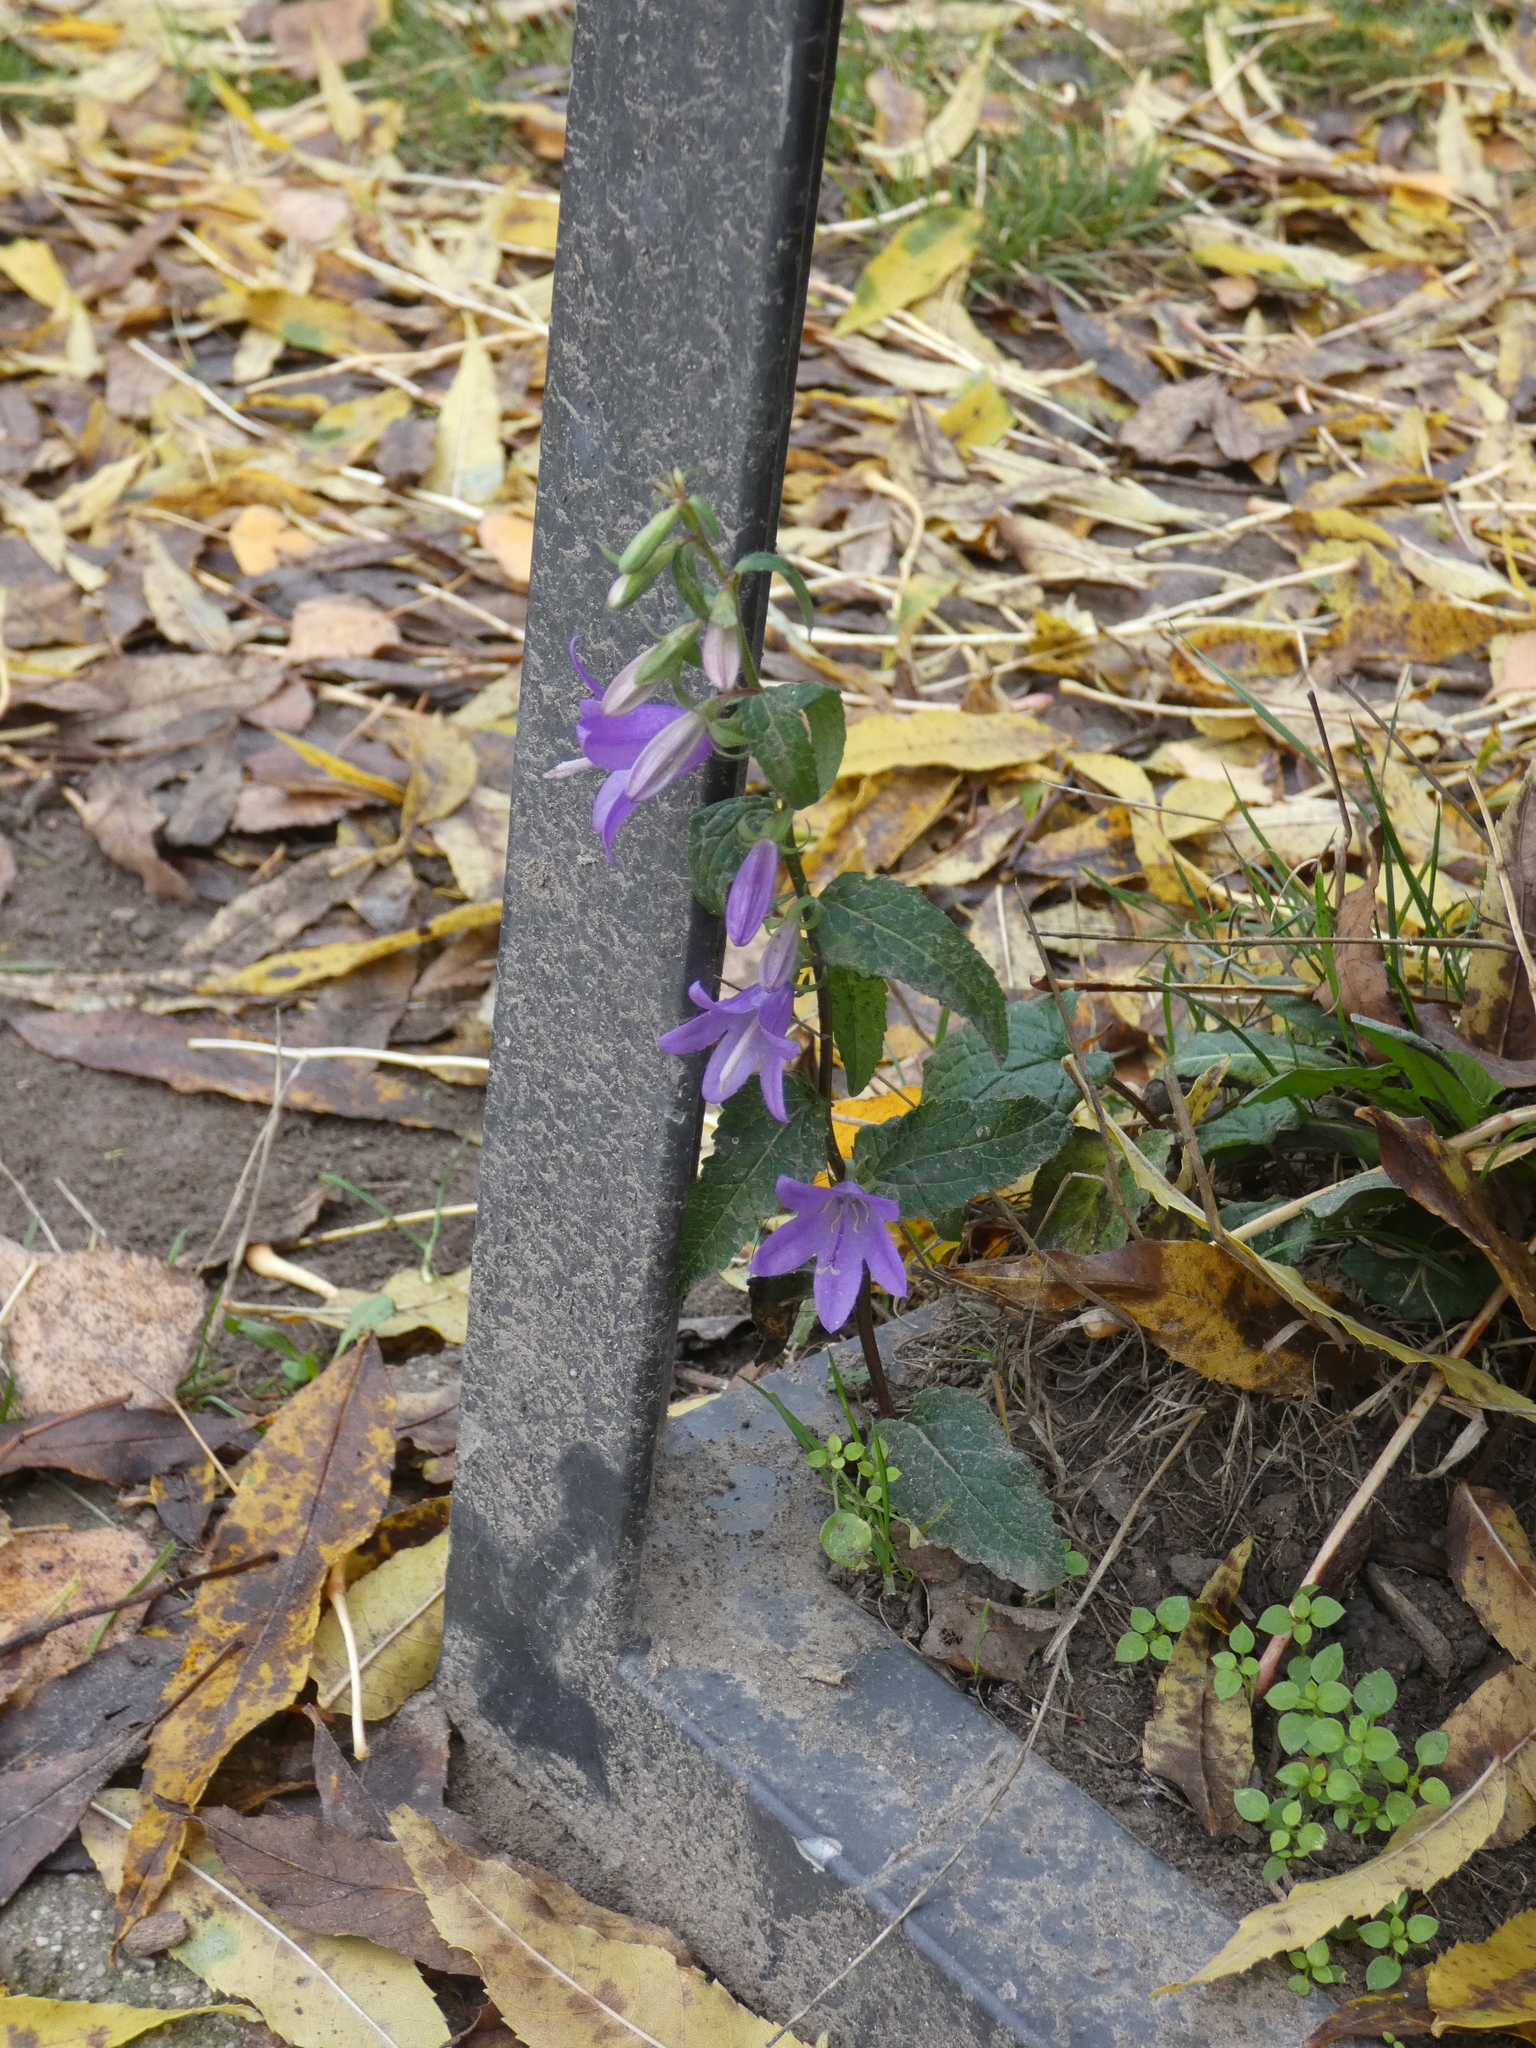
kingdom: Plantae
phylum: Tracheophyta
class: Magnoliopsida
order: Asterales
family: Campanulaceae
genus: Campanula
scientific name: Campanula rapunculoides
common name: Creeping bellflower
